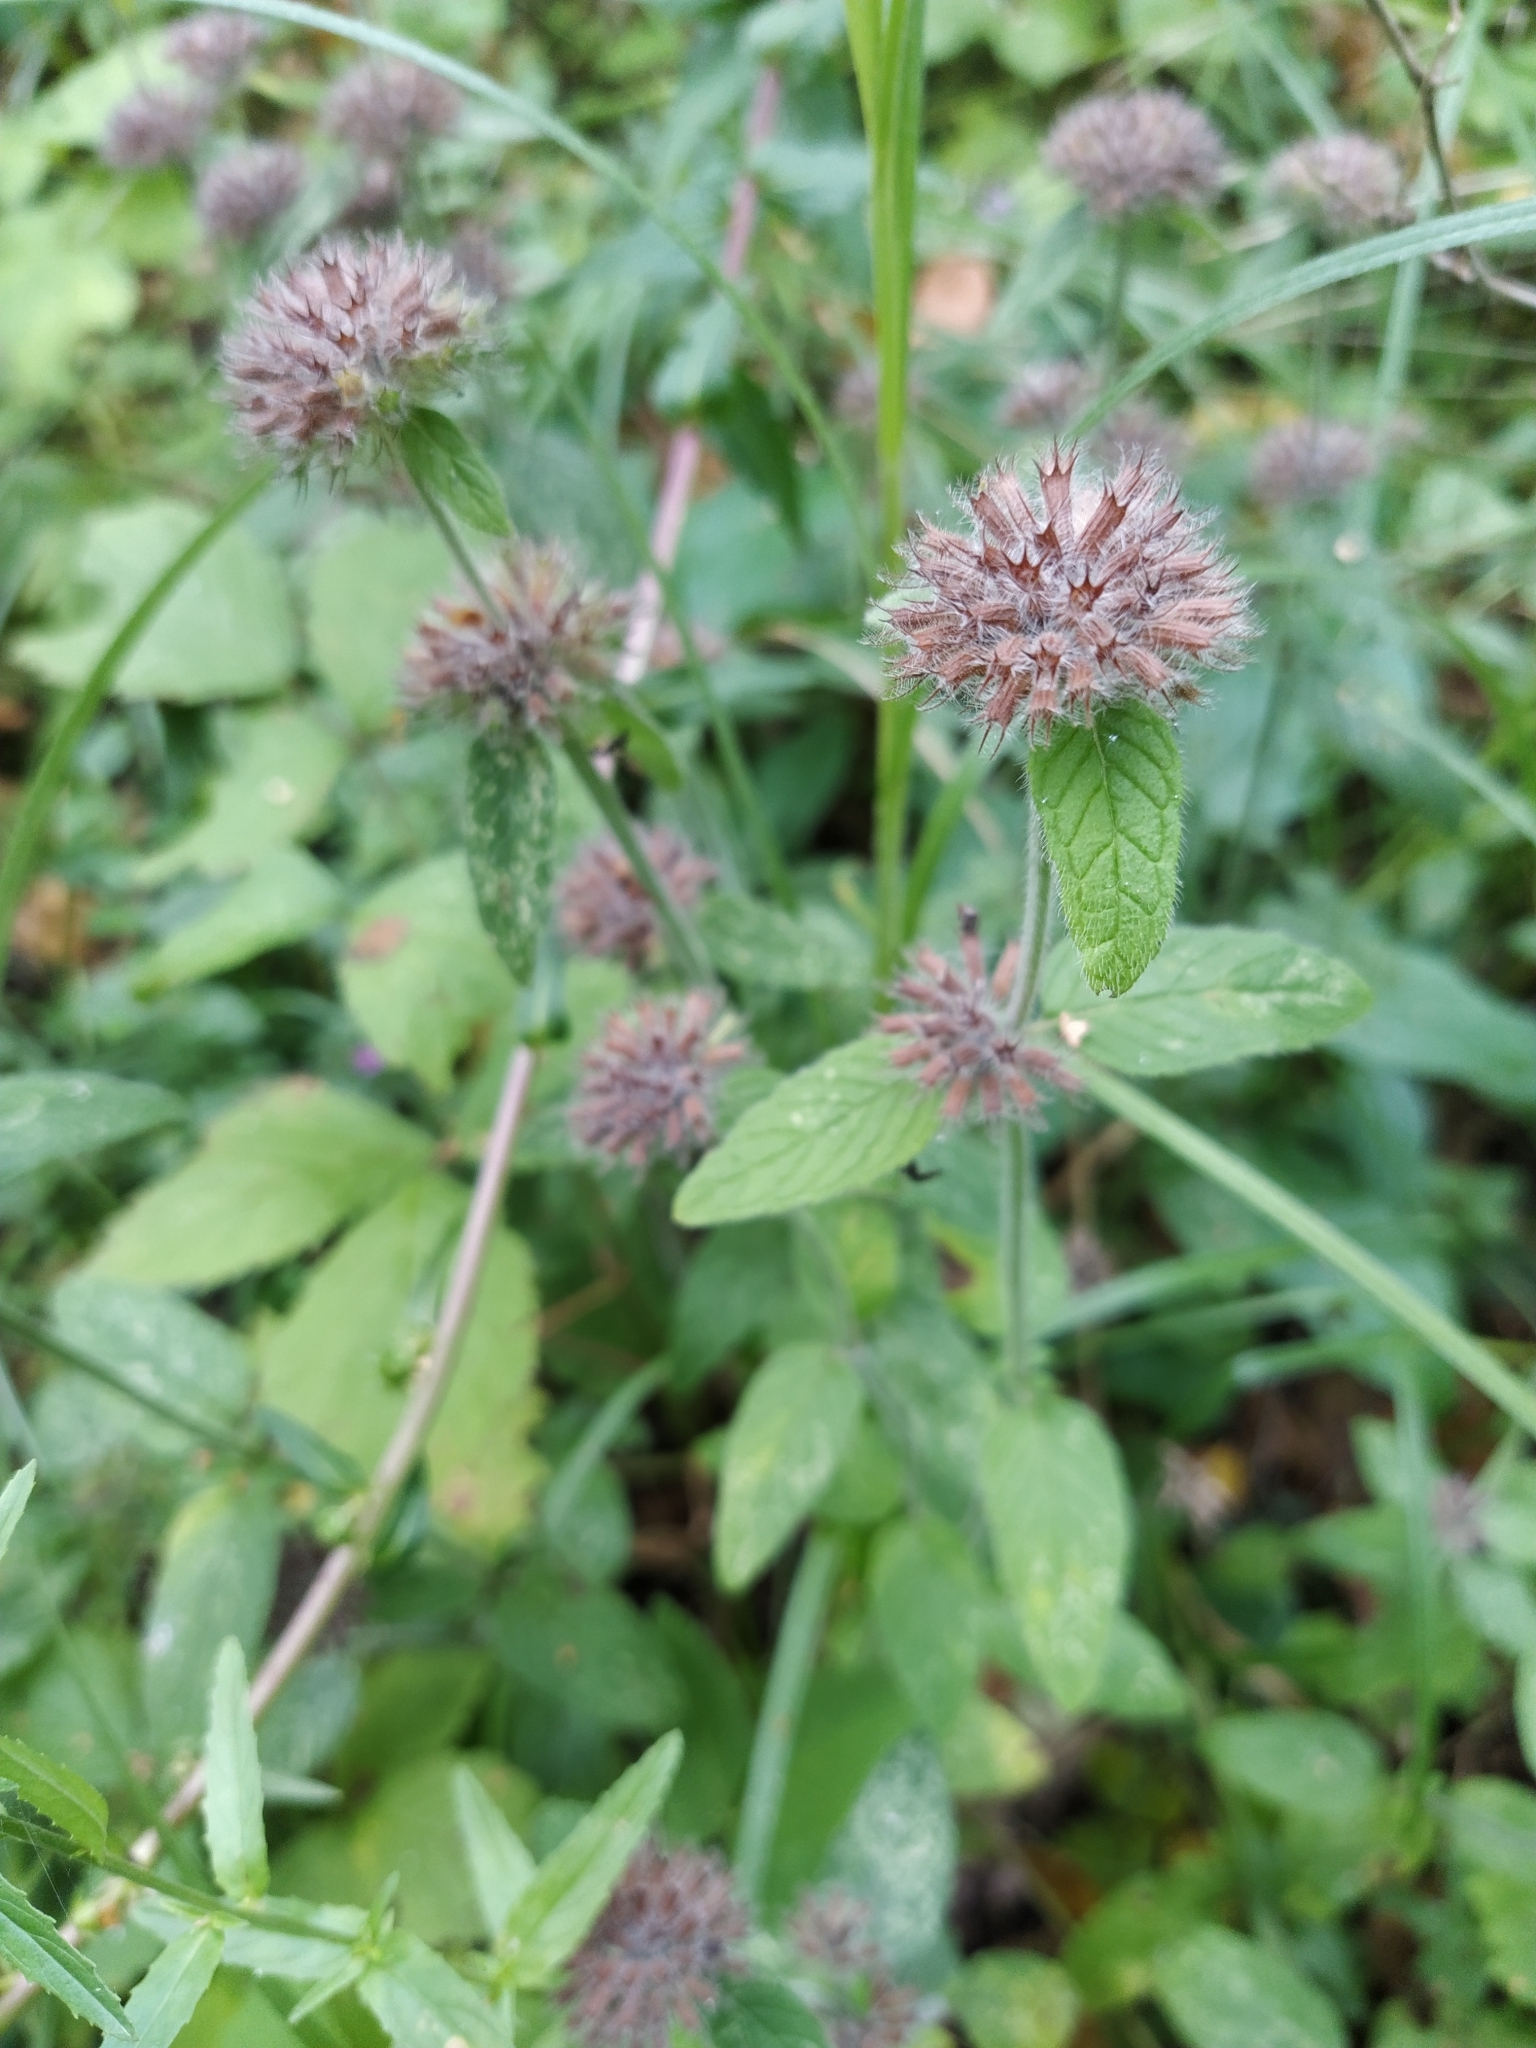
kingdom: Plantae
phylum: Tracheophyta
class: Magnoliopsida
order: Lamiales
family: Lamiaceae
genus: Clinopodium
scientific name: Clinopodium vulgare
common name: Wild basil
